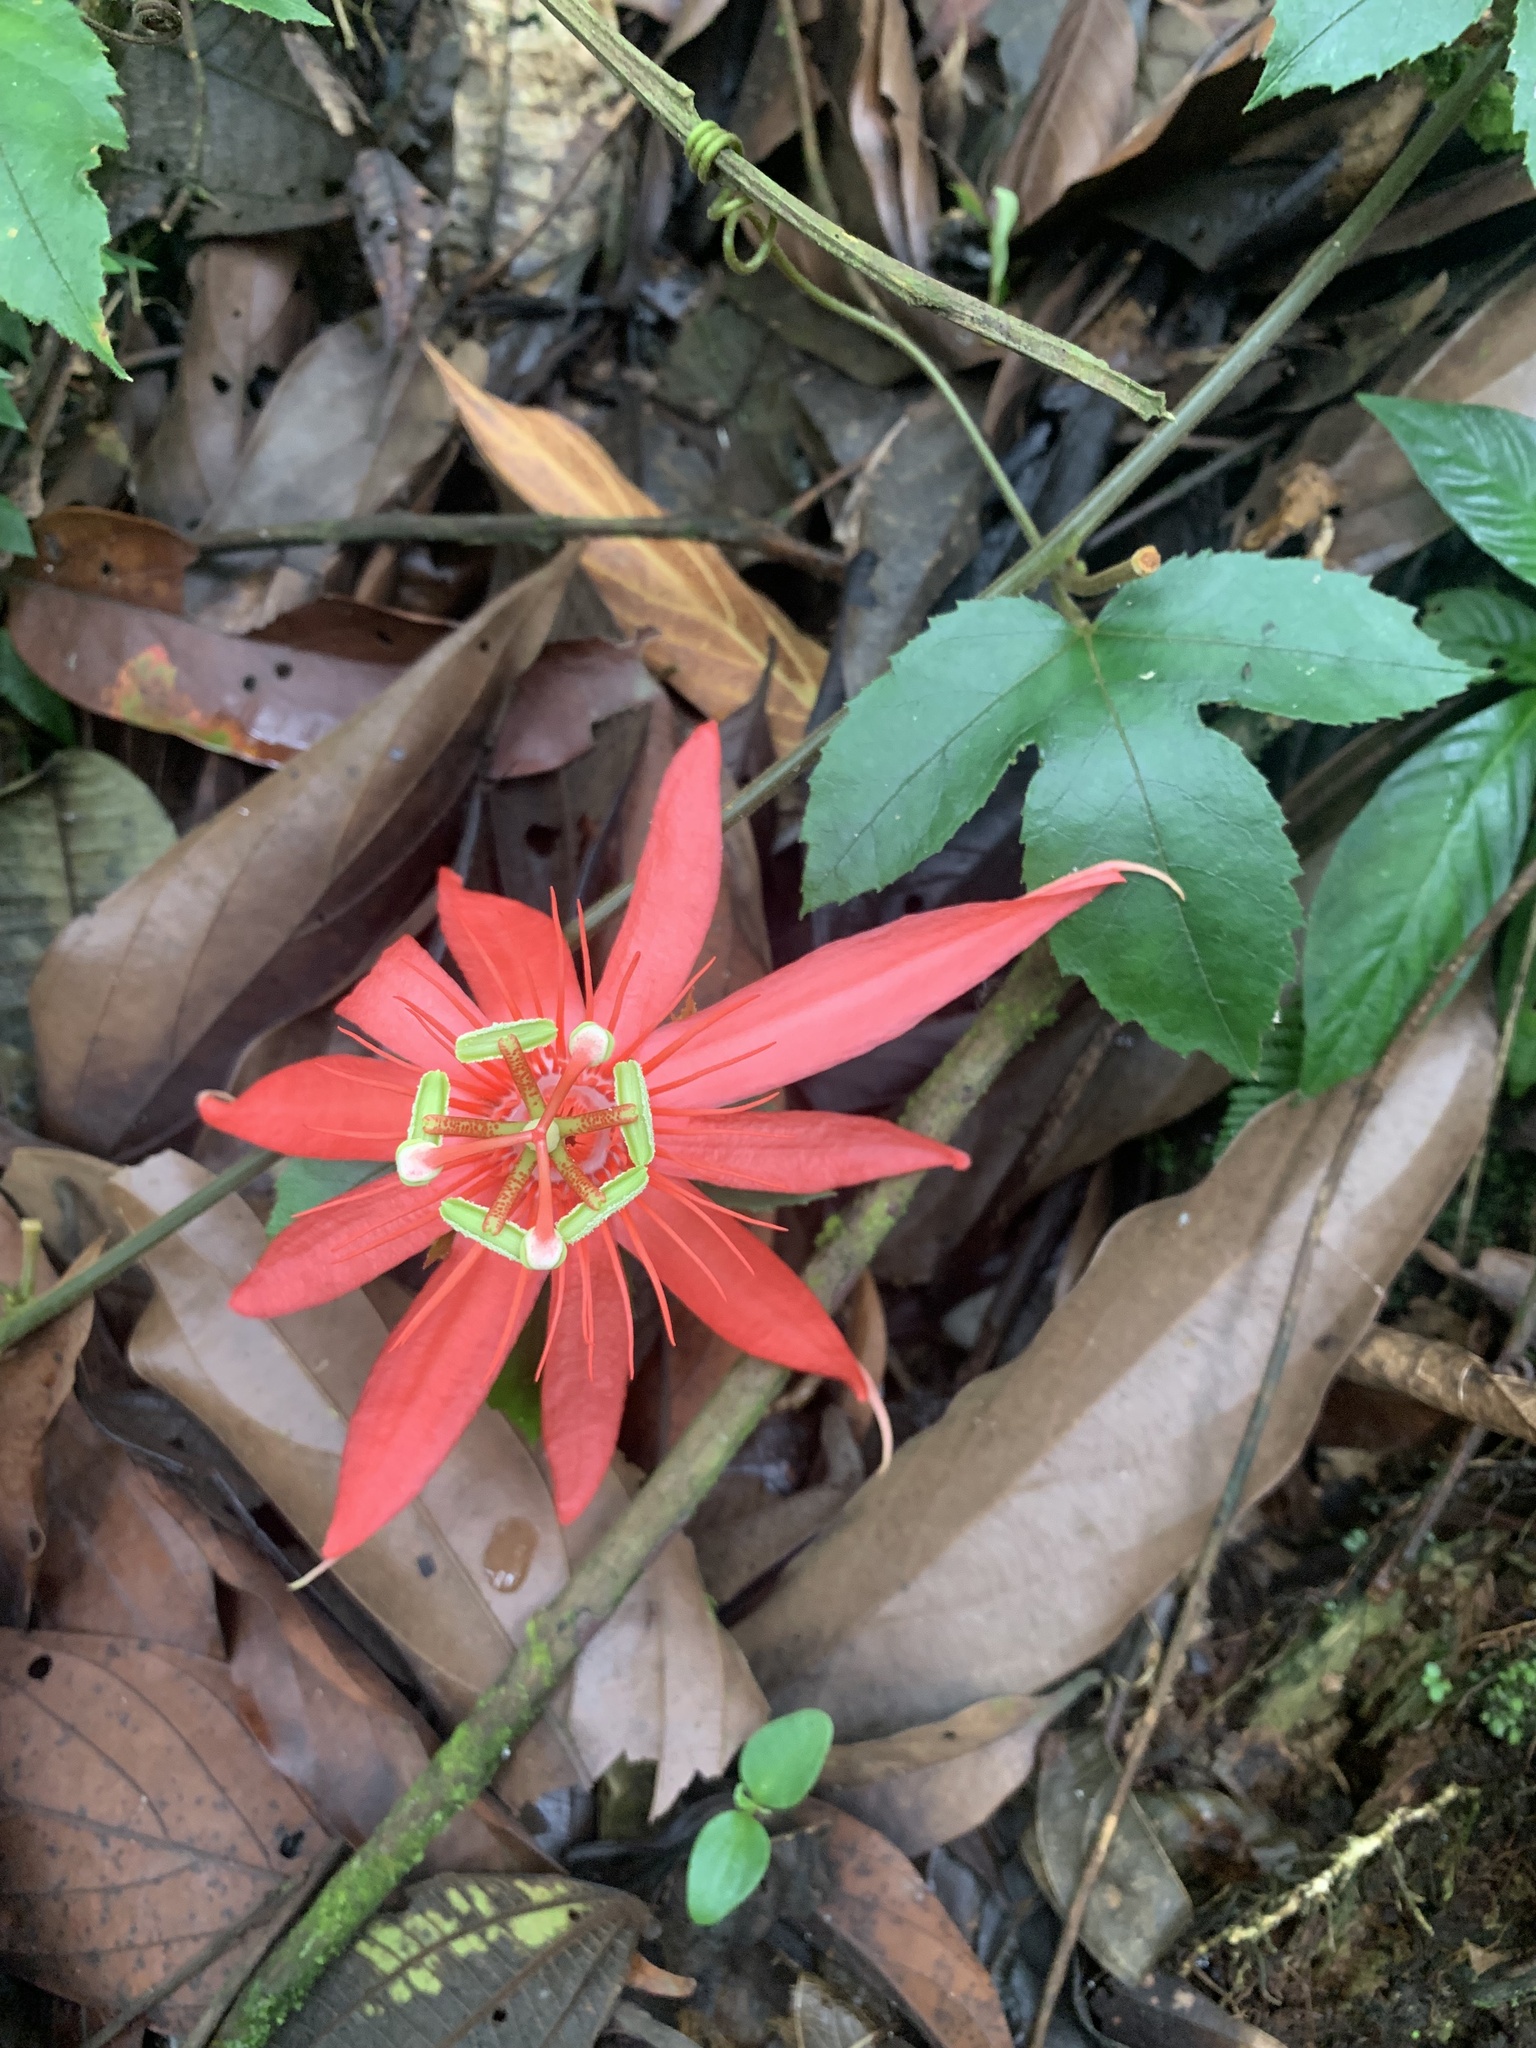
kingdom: Plantae
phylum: Tracheophyta
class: Magnoliopsida
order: Malpighiales
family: Passifloraceae
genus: Passiflora
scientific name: Passiflora vitifolia
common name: Perfumed passionflower
